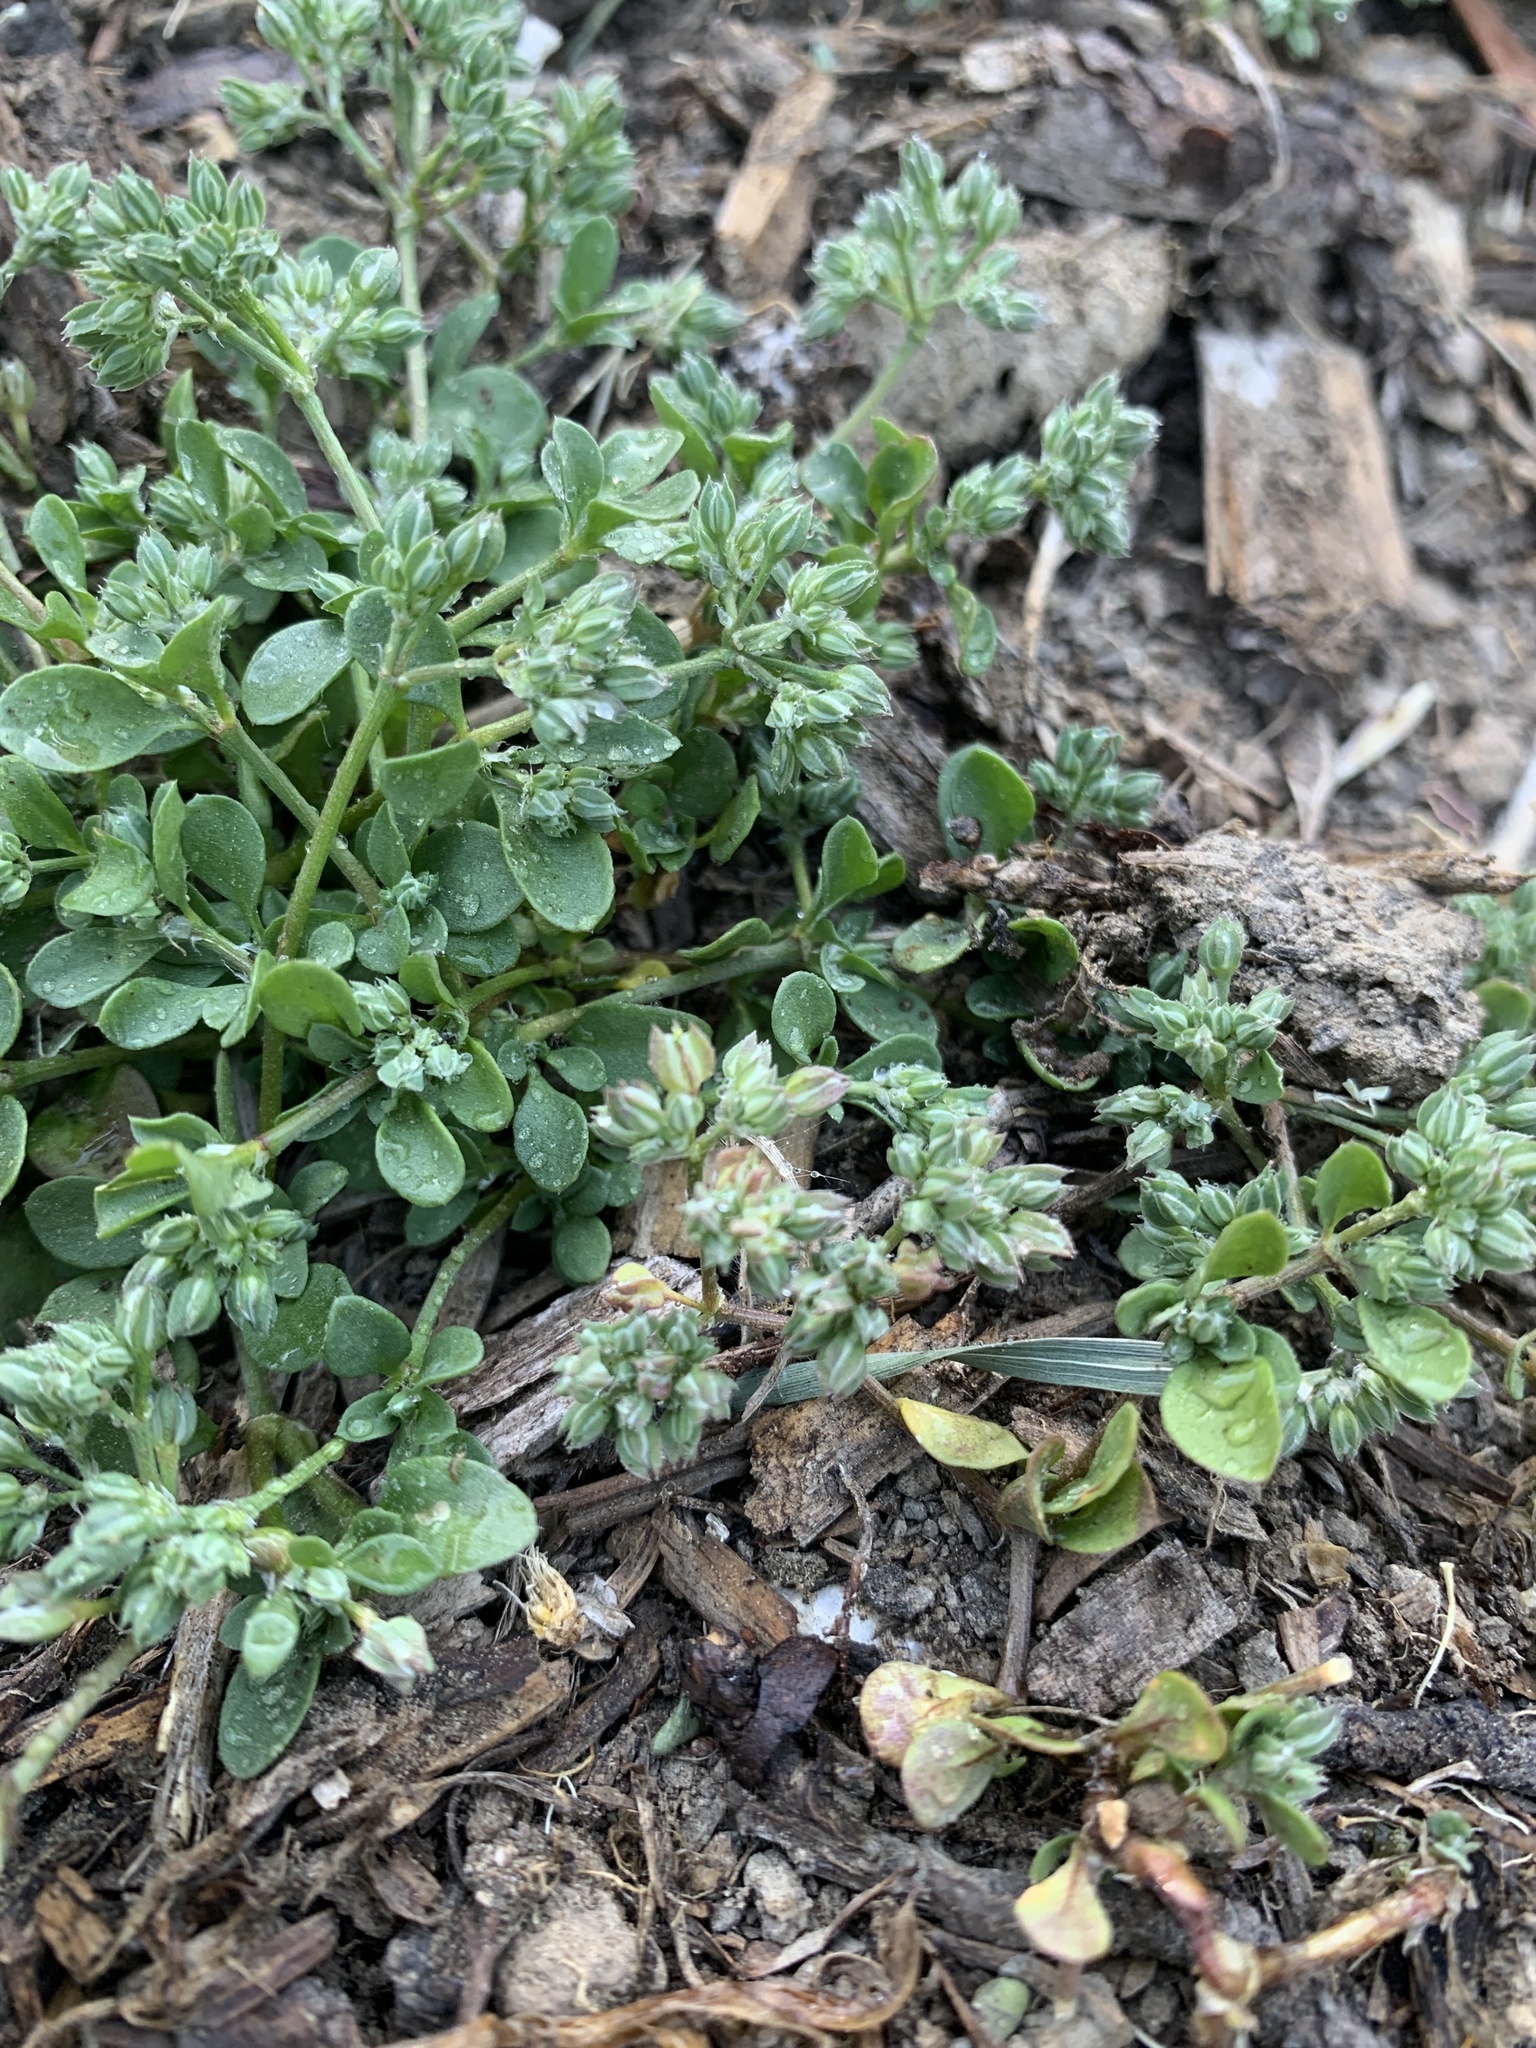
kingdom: Plantae
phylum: Tracheophyta
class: Magnoliopsida
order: Caryophyllales
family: Caryophyllaceae
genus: Polycarpon
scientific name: Polycarpon tetraphyllum
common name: Four-leaved all-seed
